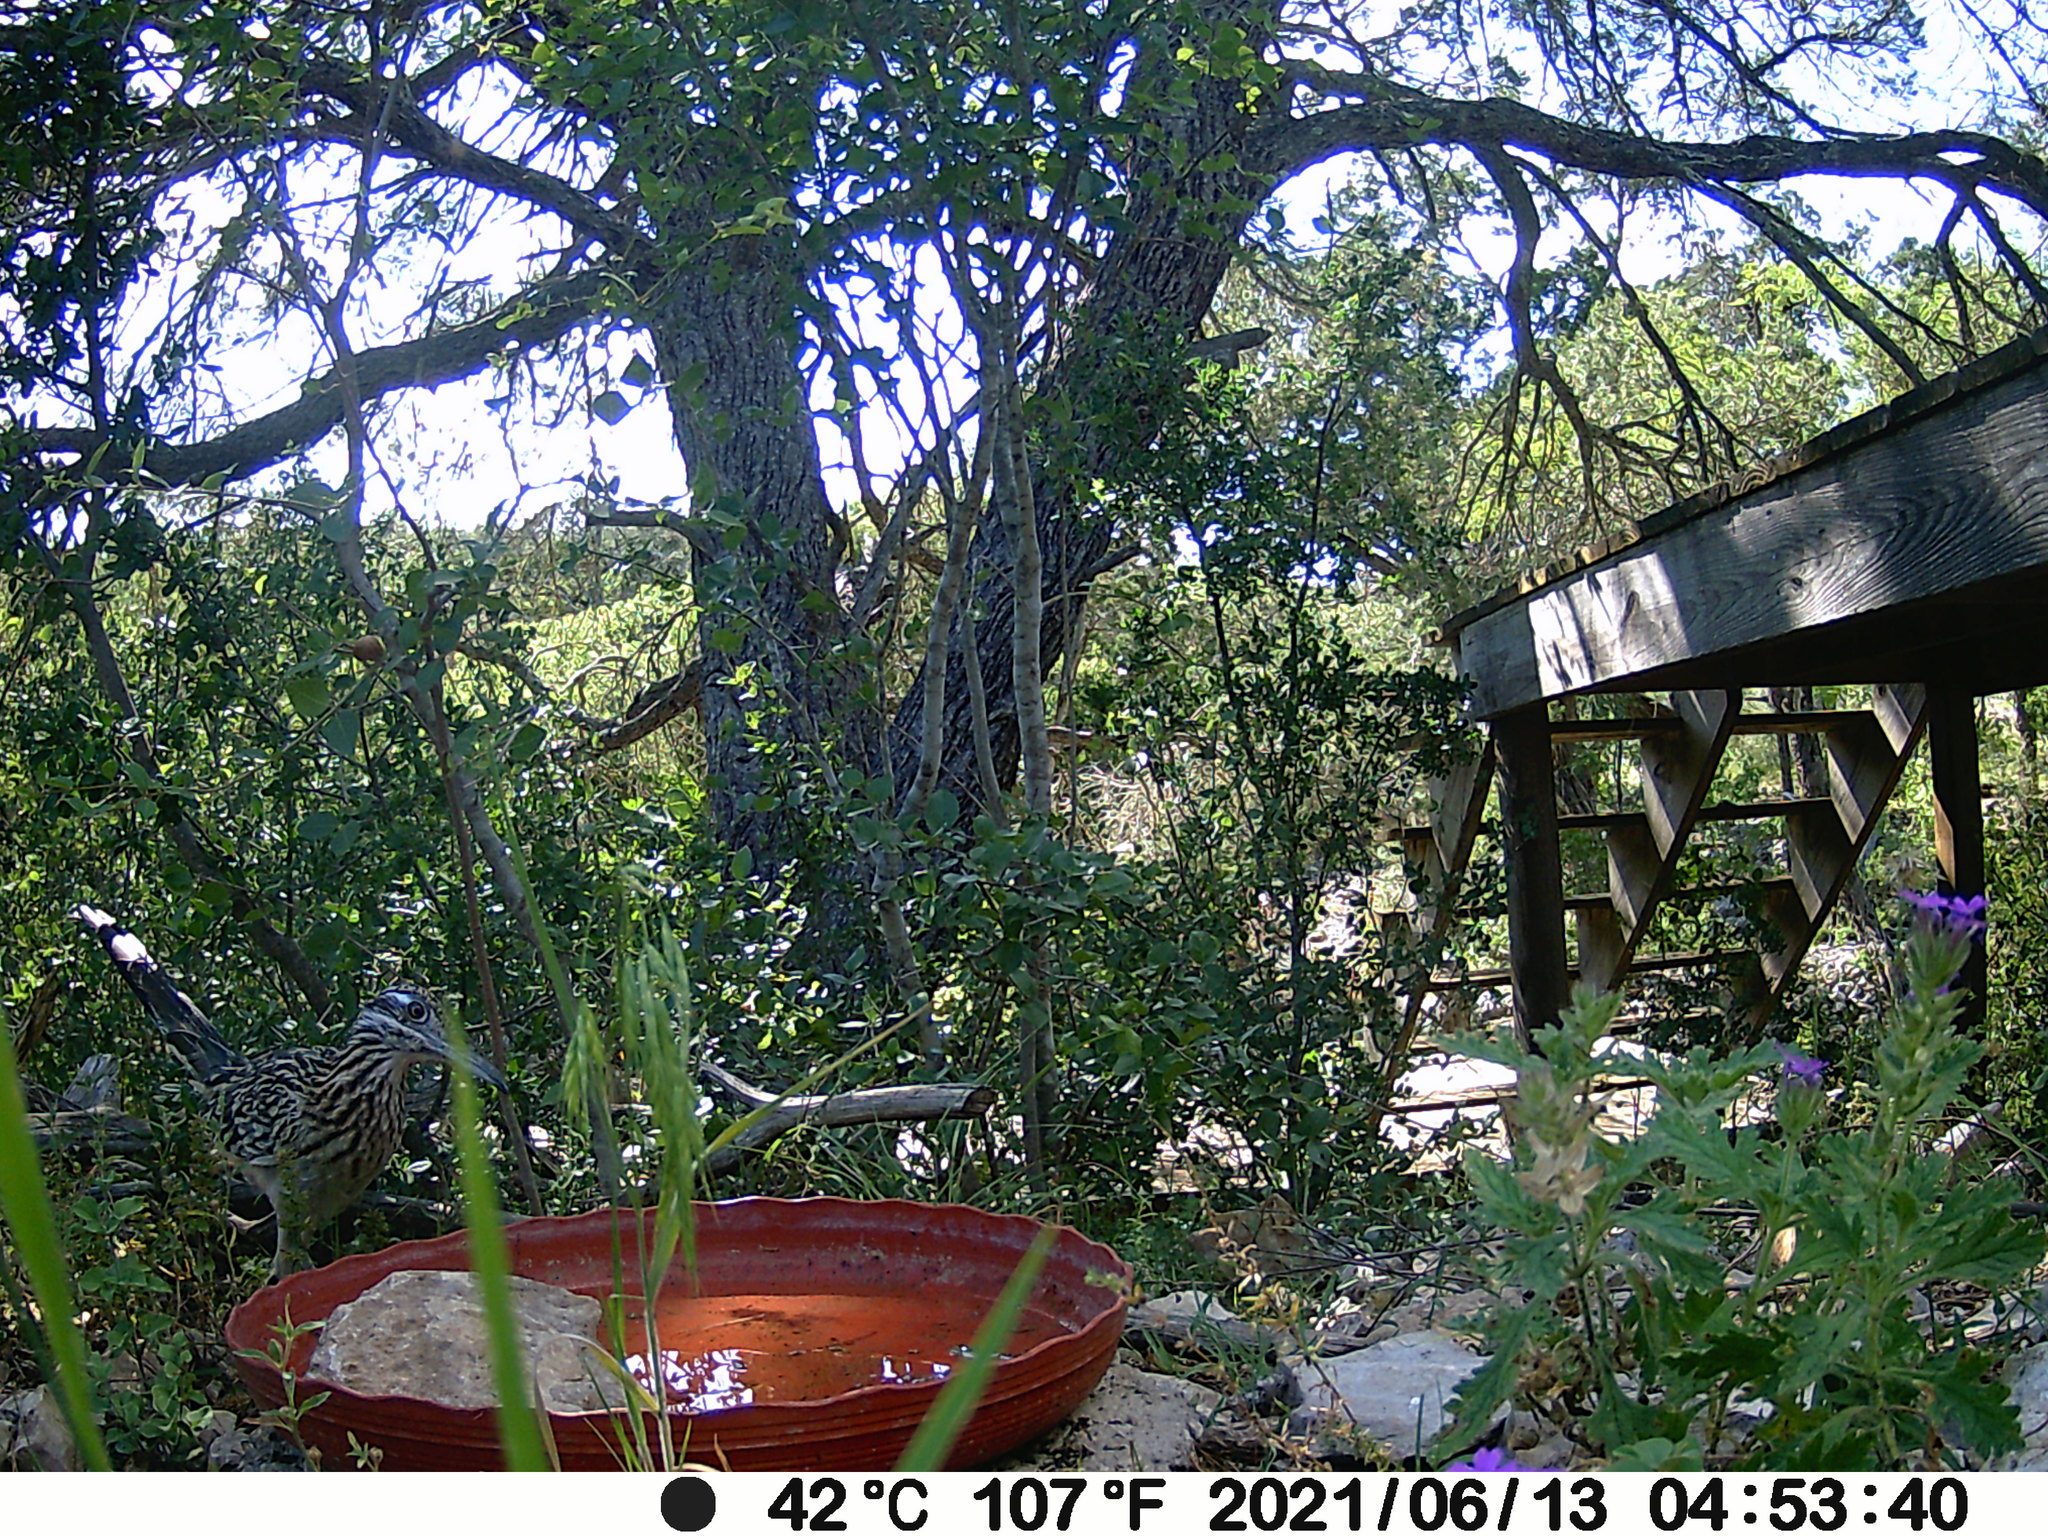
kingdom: Animalia
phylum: Chordata
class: Aves
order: Cuculiformes
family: Cuculidae
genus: Geococcyx
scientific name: Geococcyx californianus
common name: Greater roadrunner
